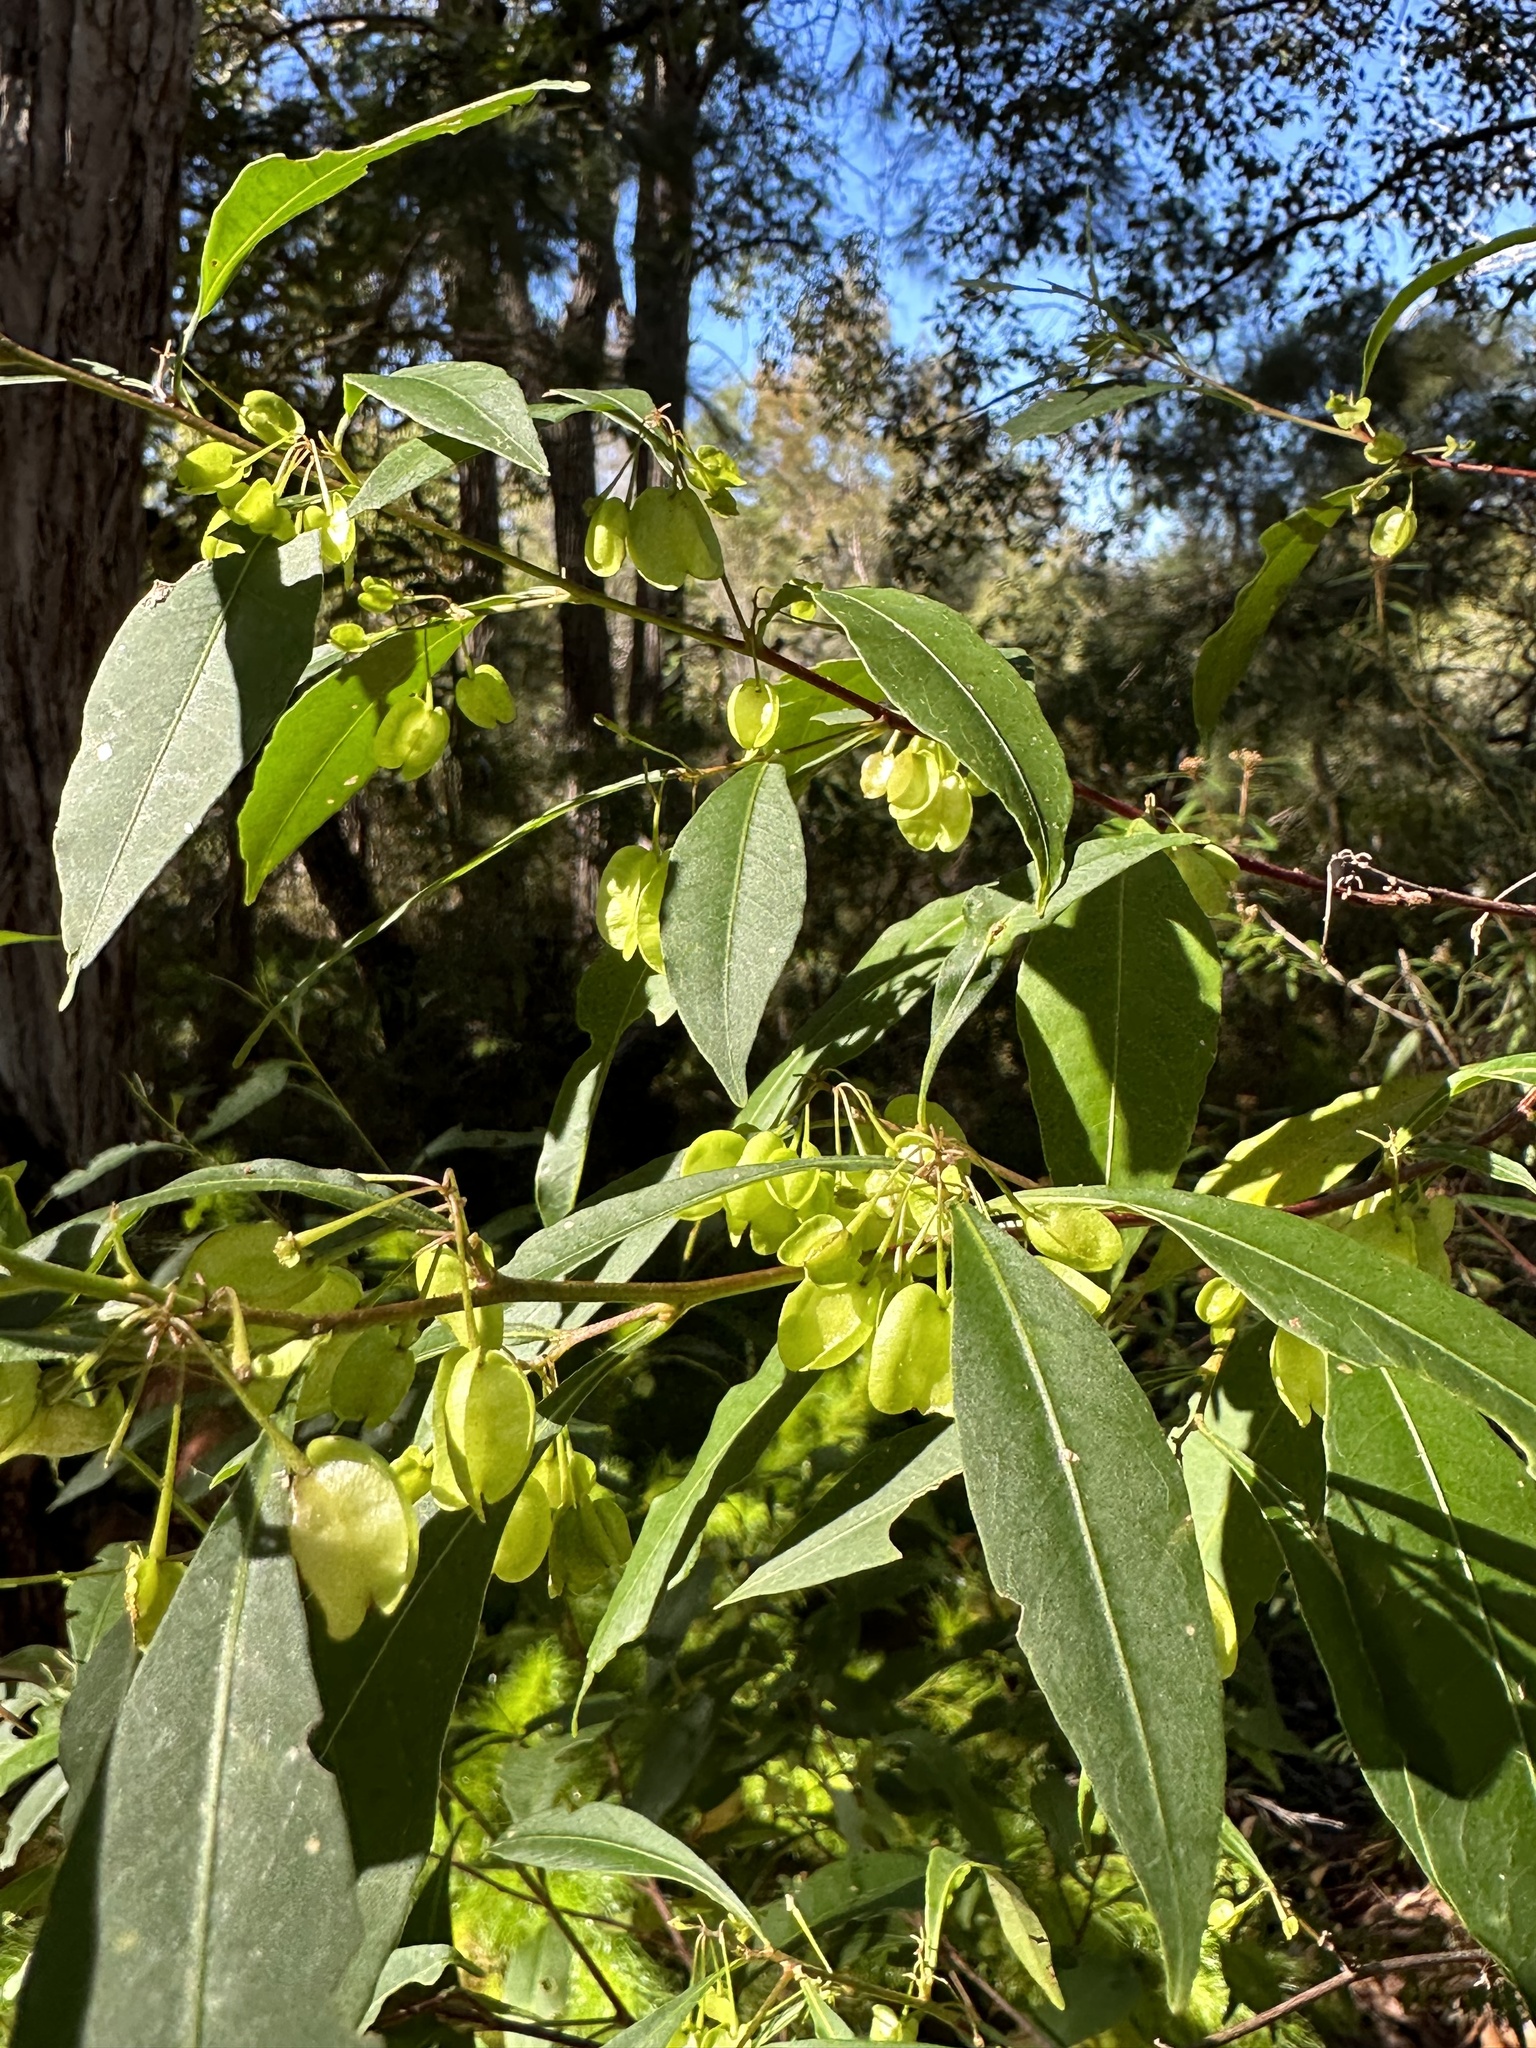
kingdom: Plantae
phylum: Tracheophyta
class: Magnoliopsida
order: Sapindales
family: Sapindaceae
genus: Dodonaea
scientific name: Dodonaea triquetra
